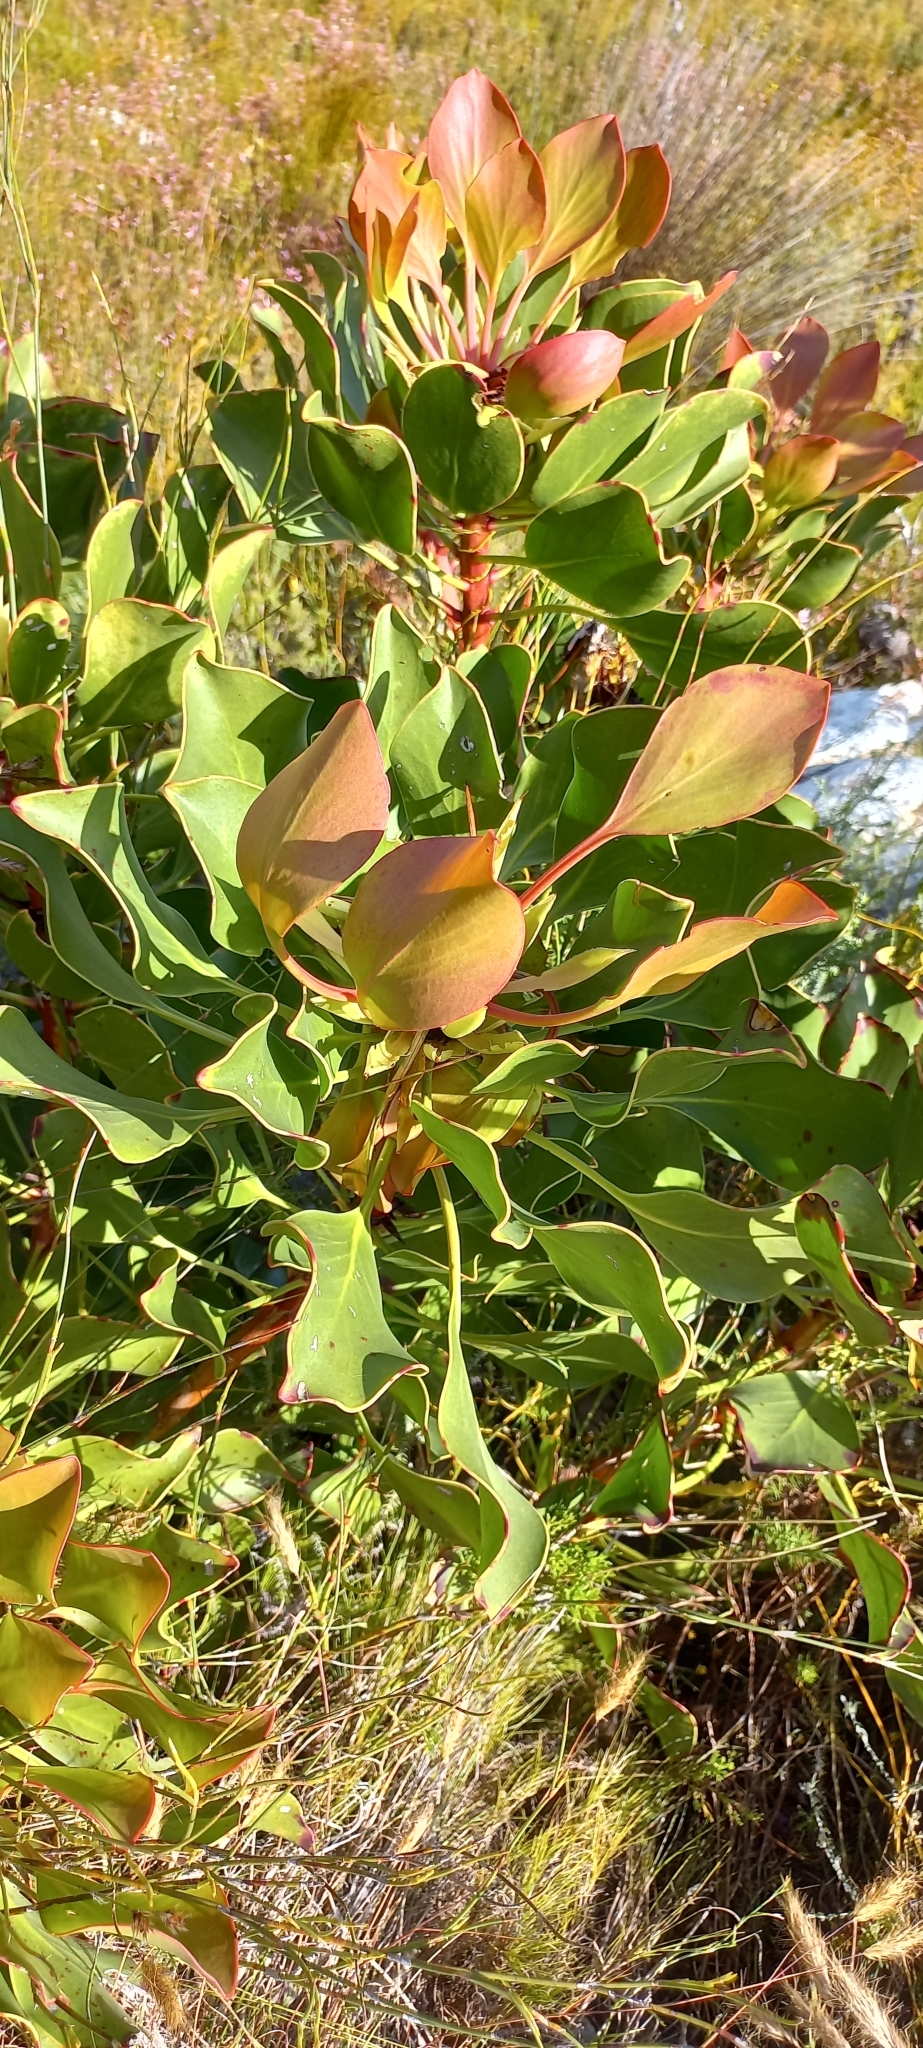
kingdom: Plantae
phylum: Tracheophyta
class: Magnoliopsida
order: Proteales
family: Proteaceae
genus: Protea
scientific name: Protea cynaroides
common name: King protea
